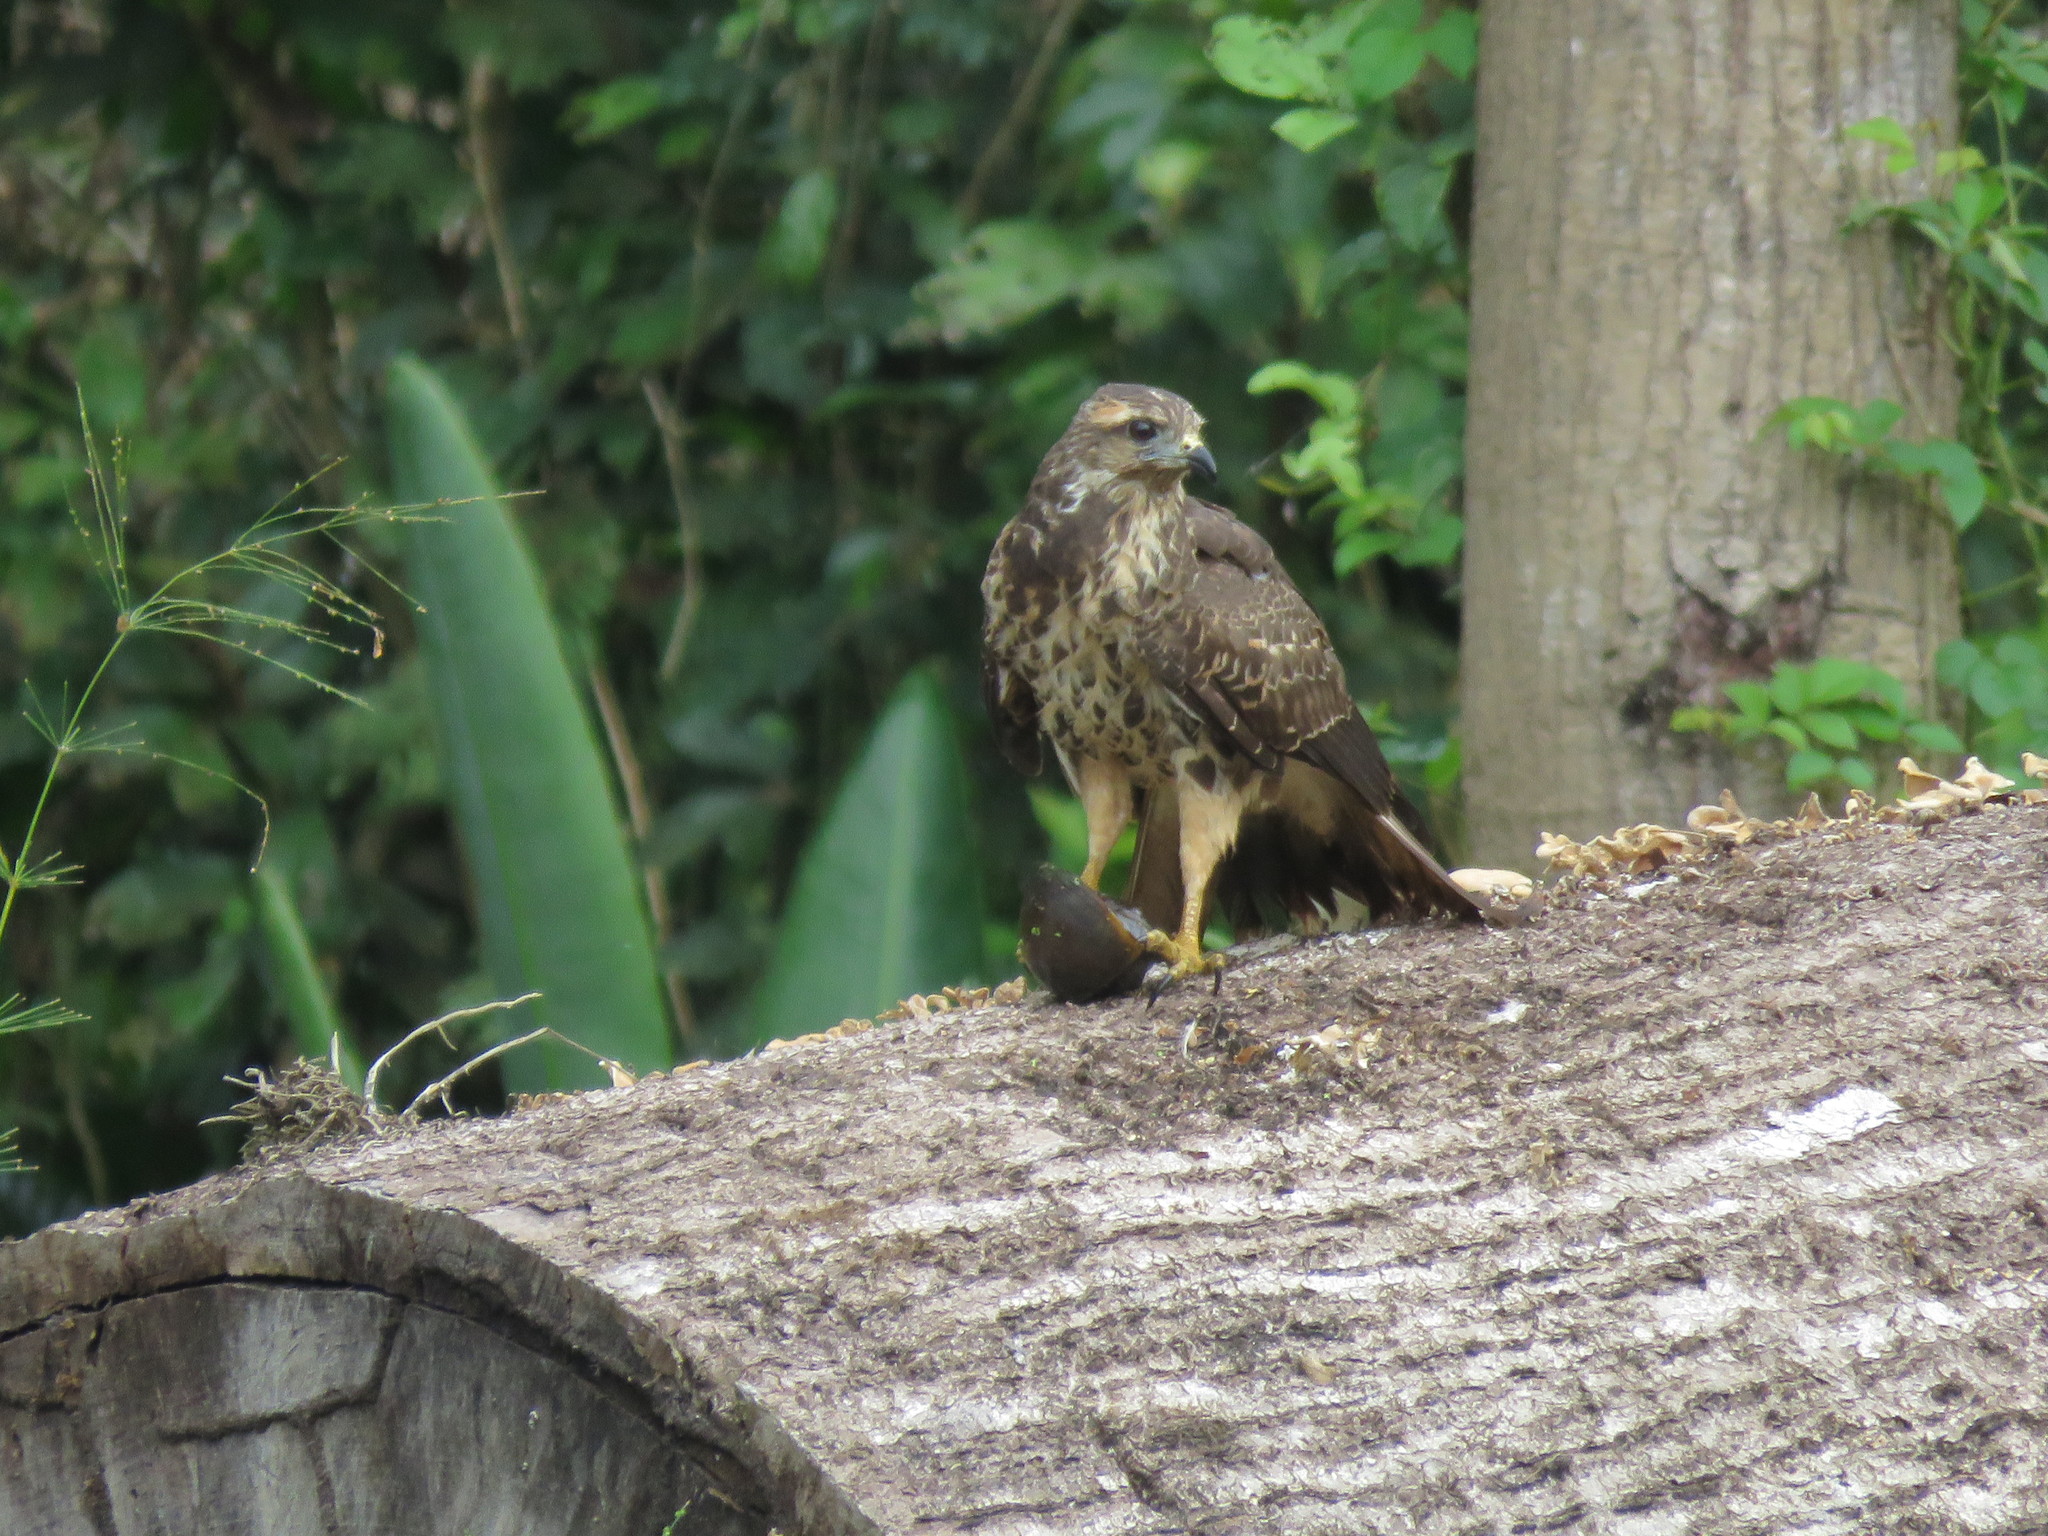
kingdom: Animalia
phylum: Chordata
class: Aves
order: Accipitriformes
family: Accipitridae
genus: Rostrhamus
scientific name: Rostrhamus sociabilis
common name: Snail kite
